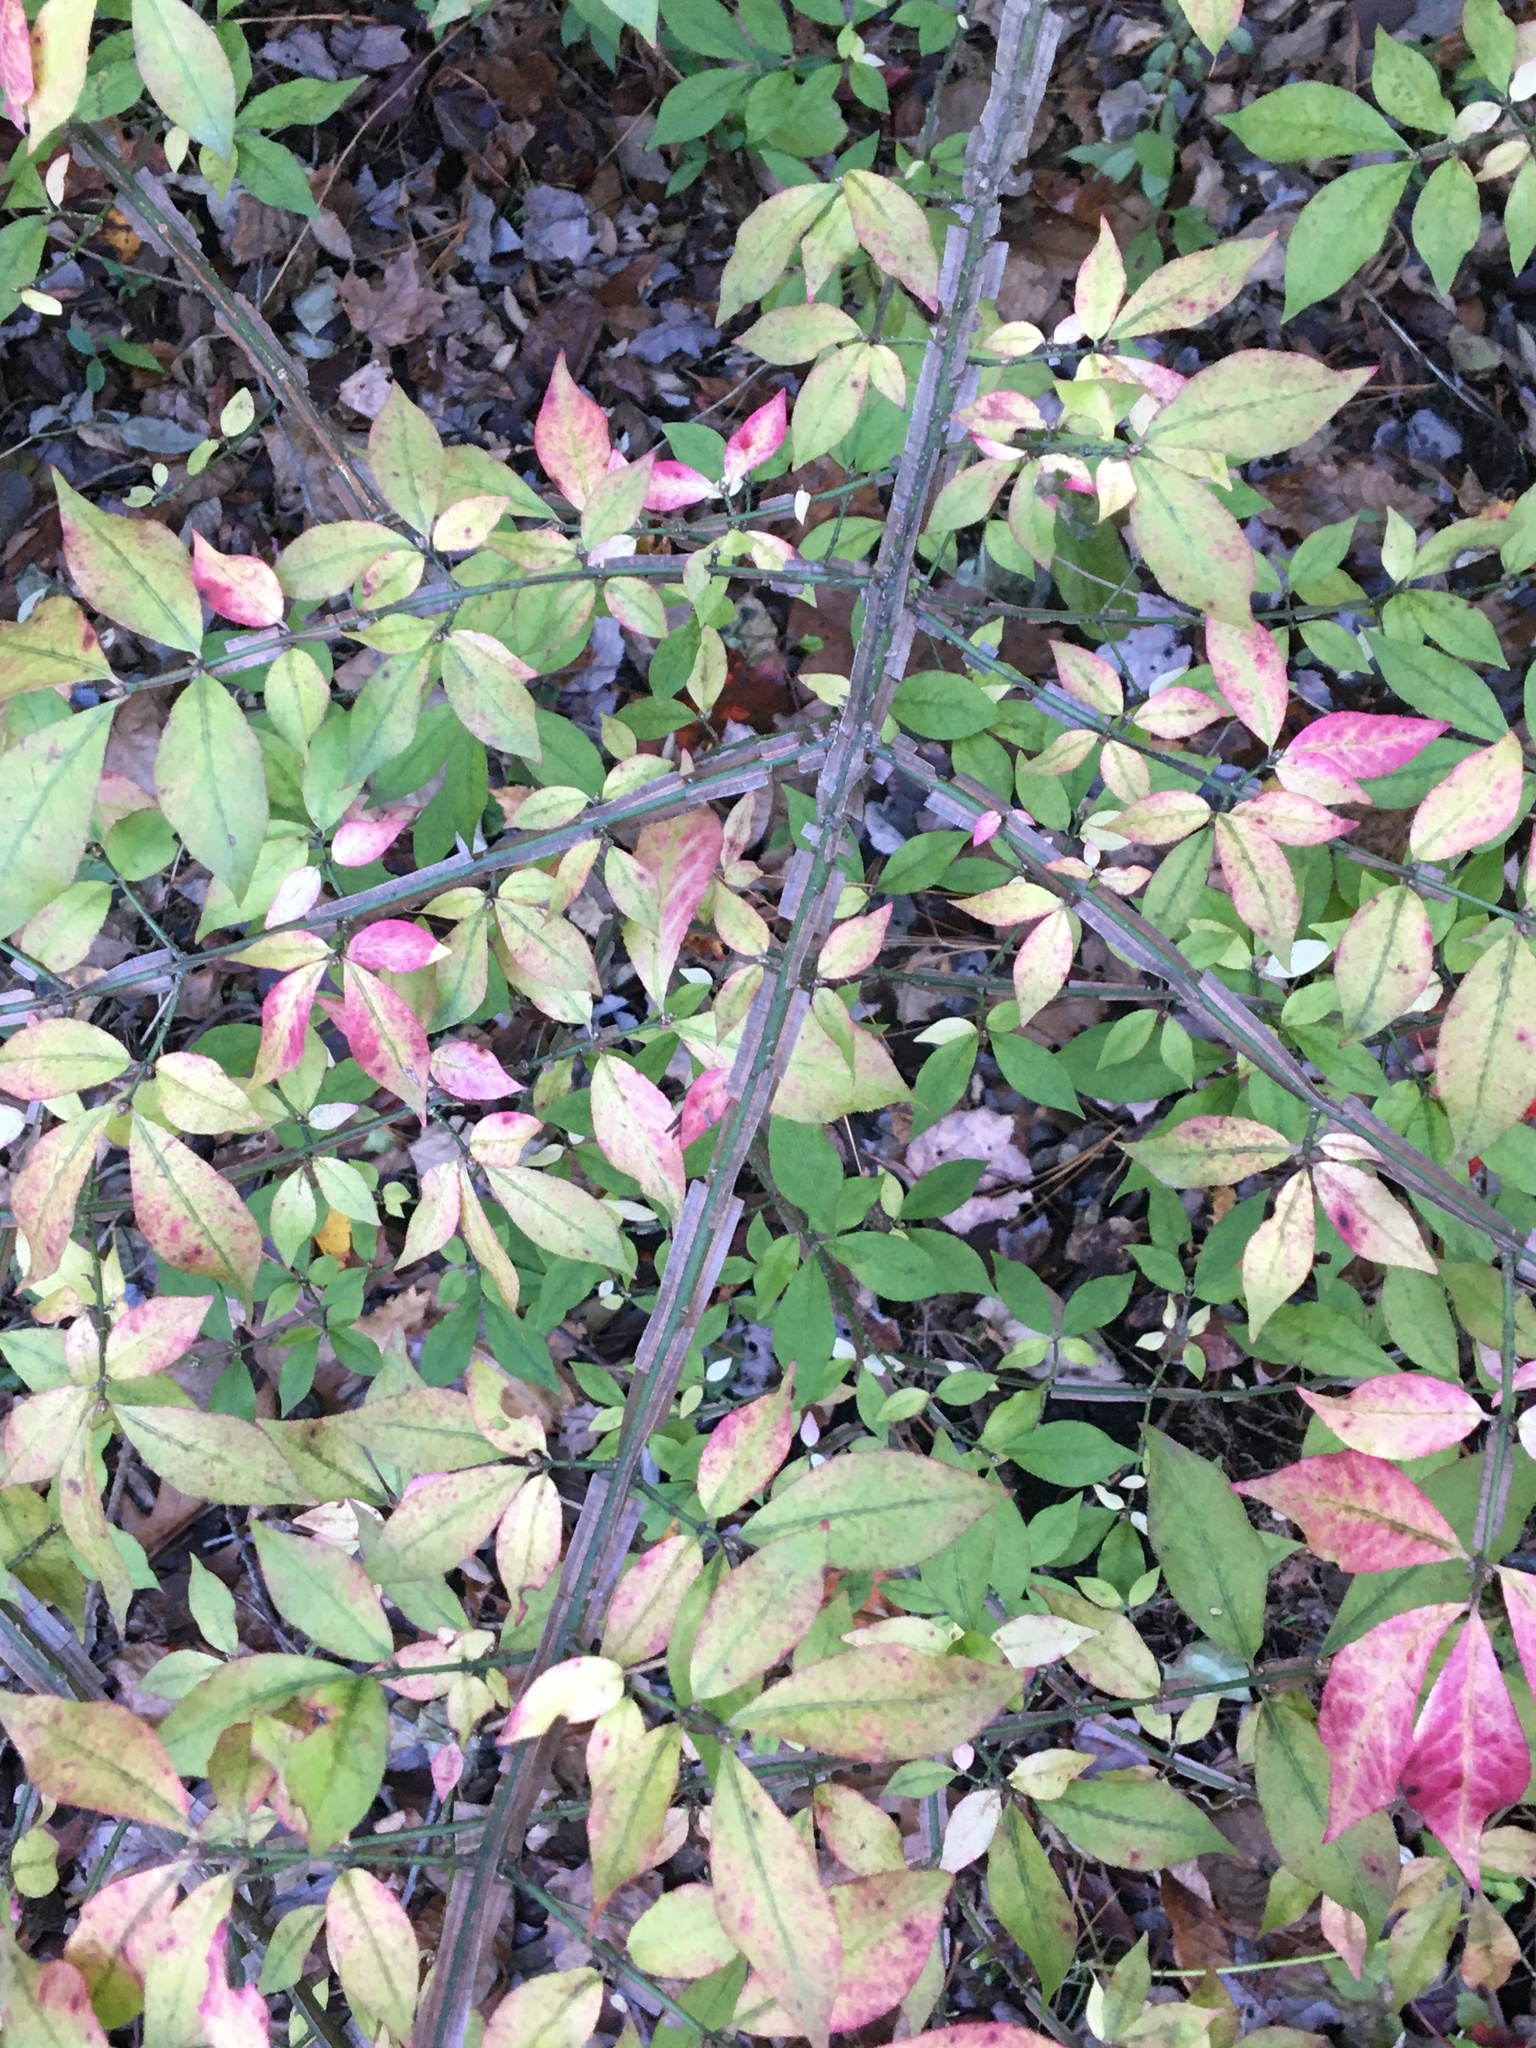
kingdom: Plantae
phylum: Tracheophyta
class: Magnoliopsida
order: Celastrales
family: Celastraceae
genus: Euonymus
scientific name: Euonymus alatus
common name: Winged euonymus
